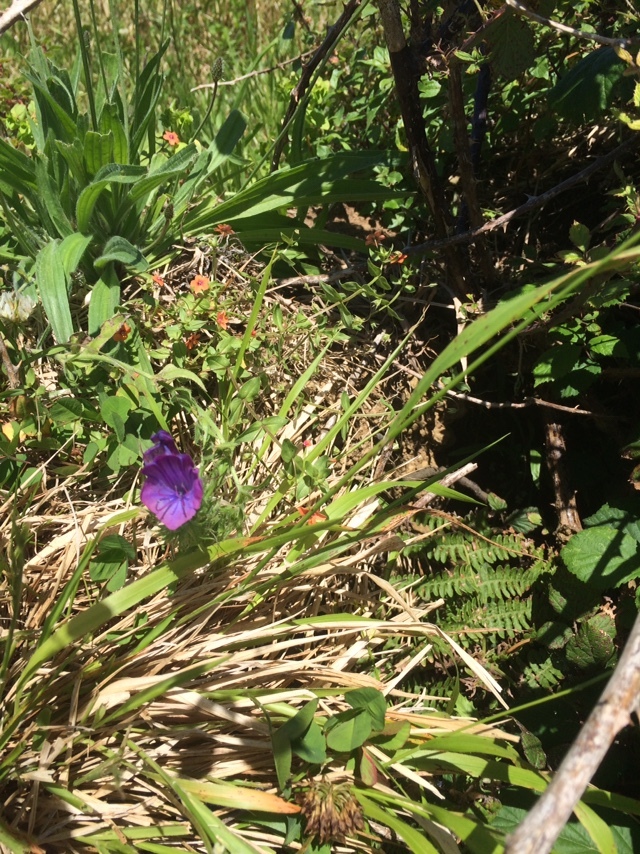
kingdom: Plantae
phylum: Tracheophyta
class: Magnoliopsida
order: Boraginales
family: Boraginaceae
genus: Echium
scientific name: Echium plantagineum
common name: Purple viper's-bugloss
